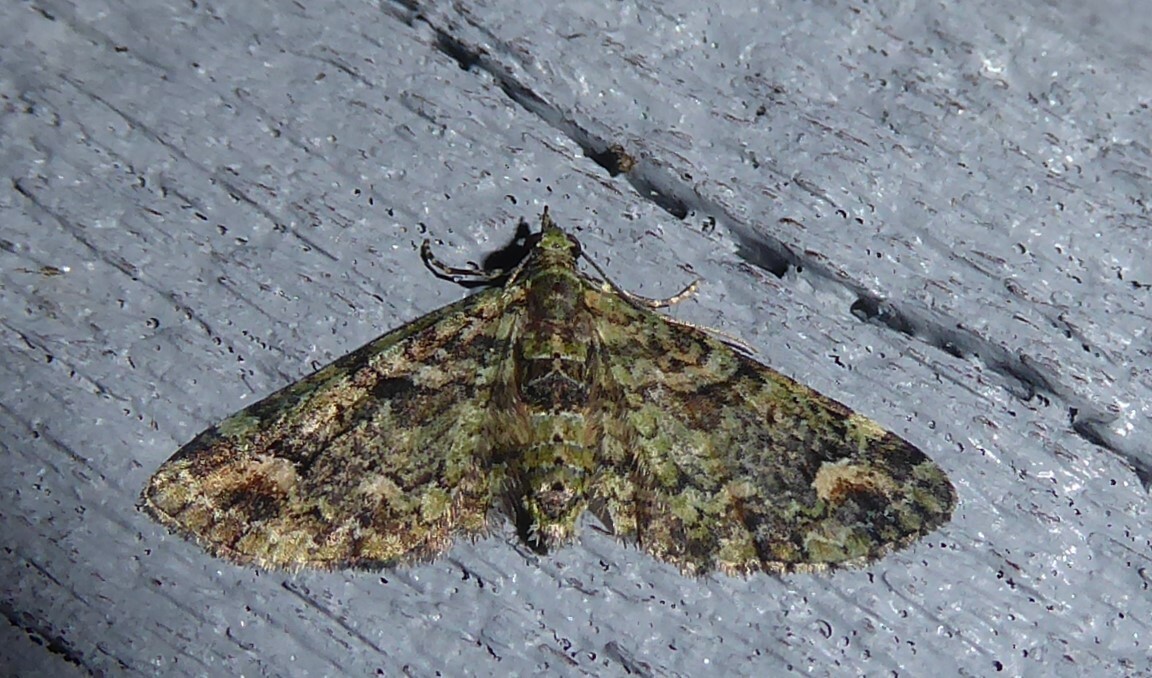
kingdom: Animalia
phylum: Arthropoda
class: Insecta
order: Lepidoptera
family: Geometridae
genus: Idaea
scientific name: Idaea mutanda
